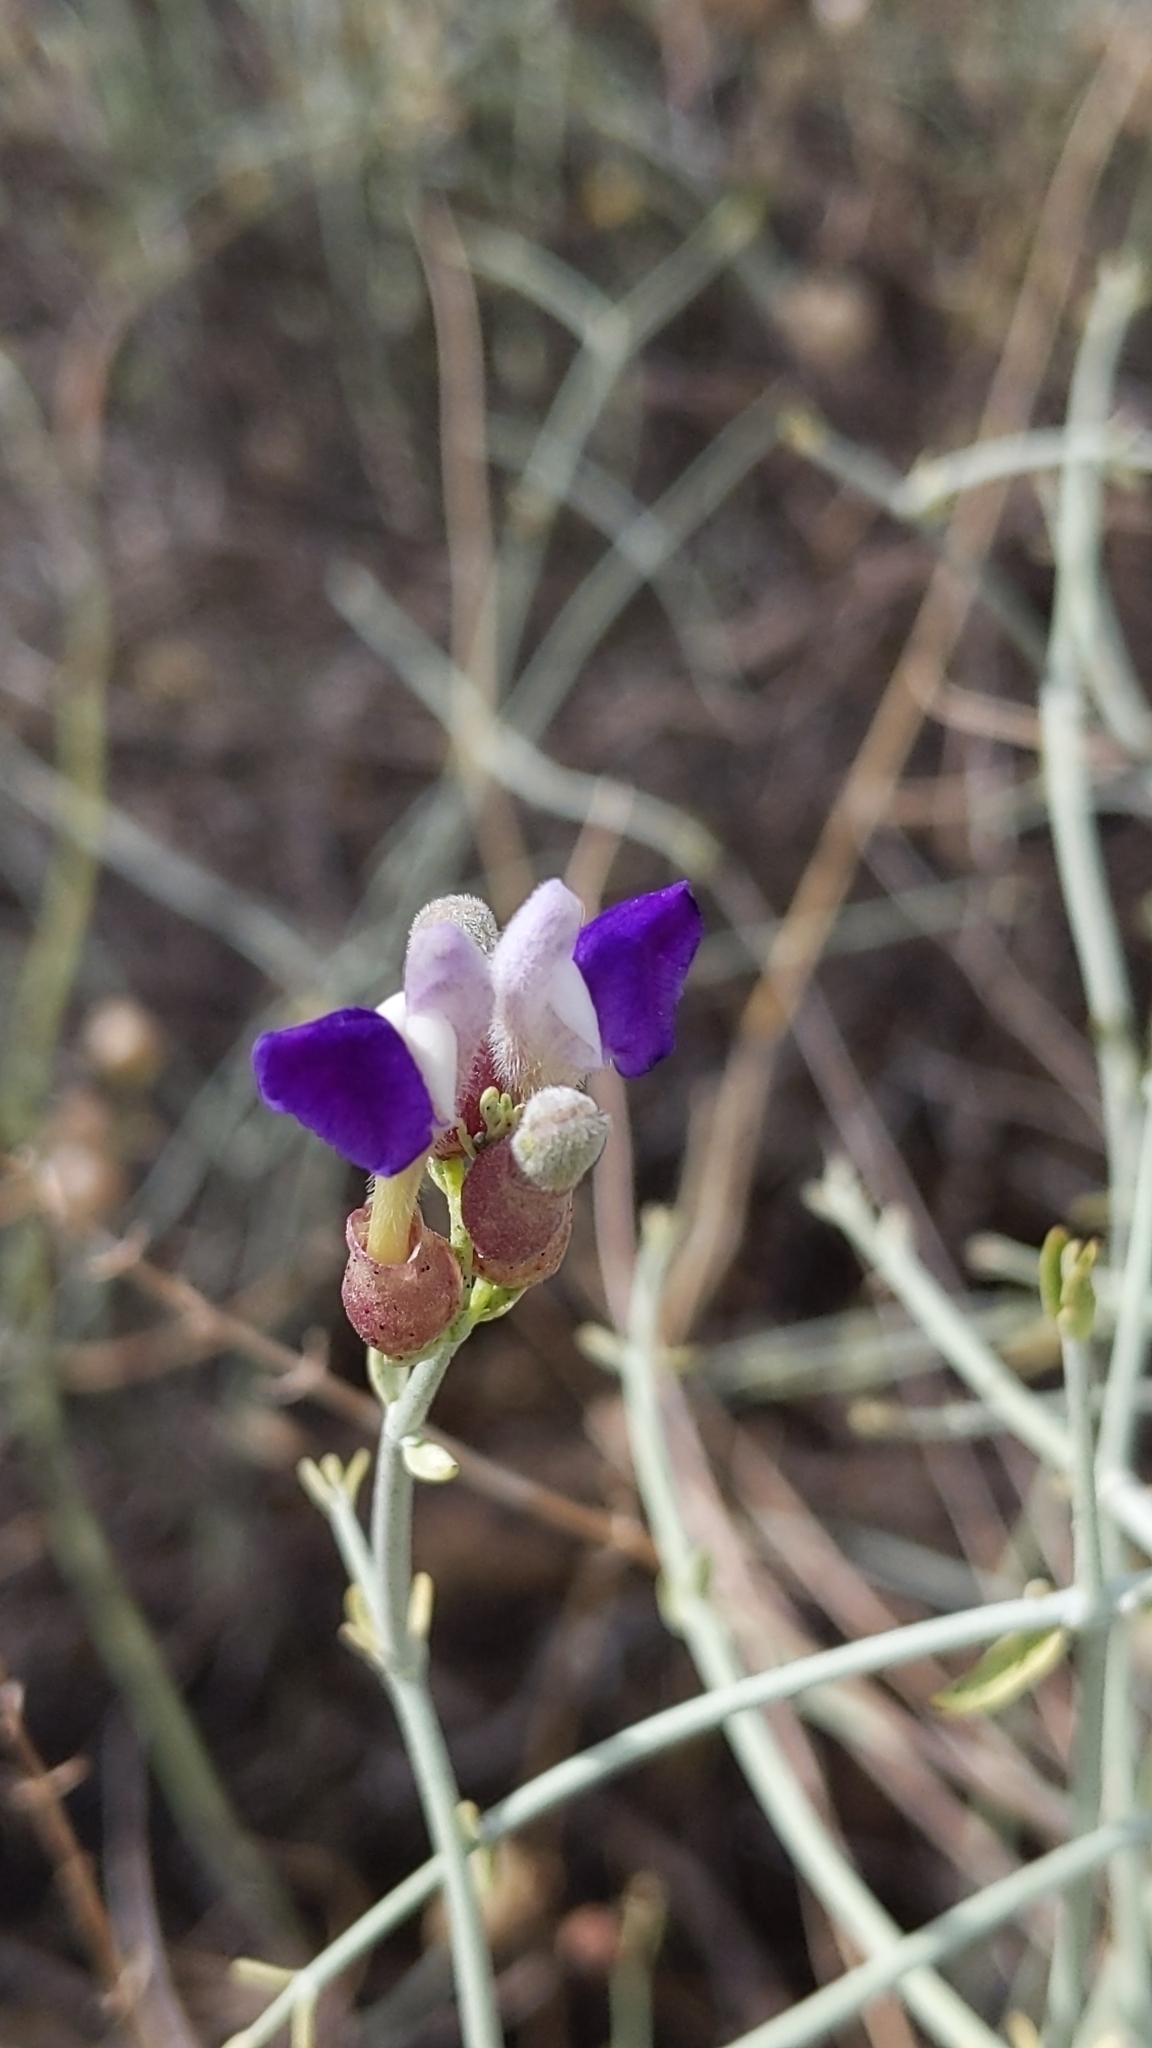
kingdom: Plantae
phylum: Tracheophyta
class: Magnoliopsida
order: Lamiales
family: Lamiaceae
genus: Scutellaria
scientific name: Scutellaria mexicana
